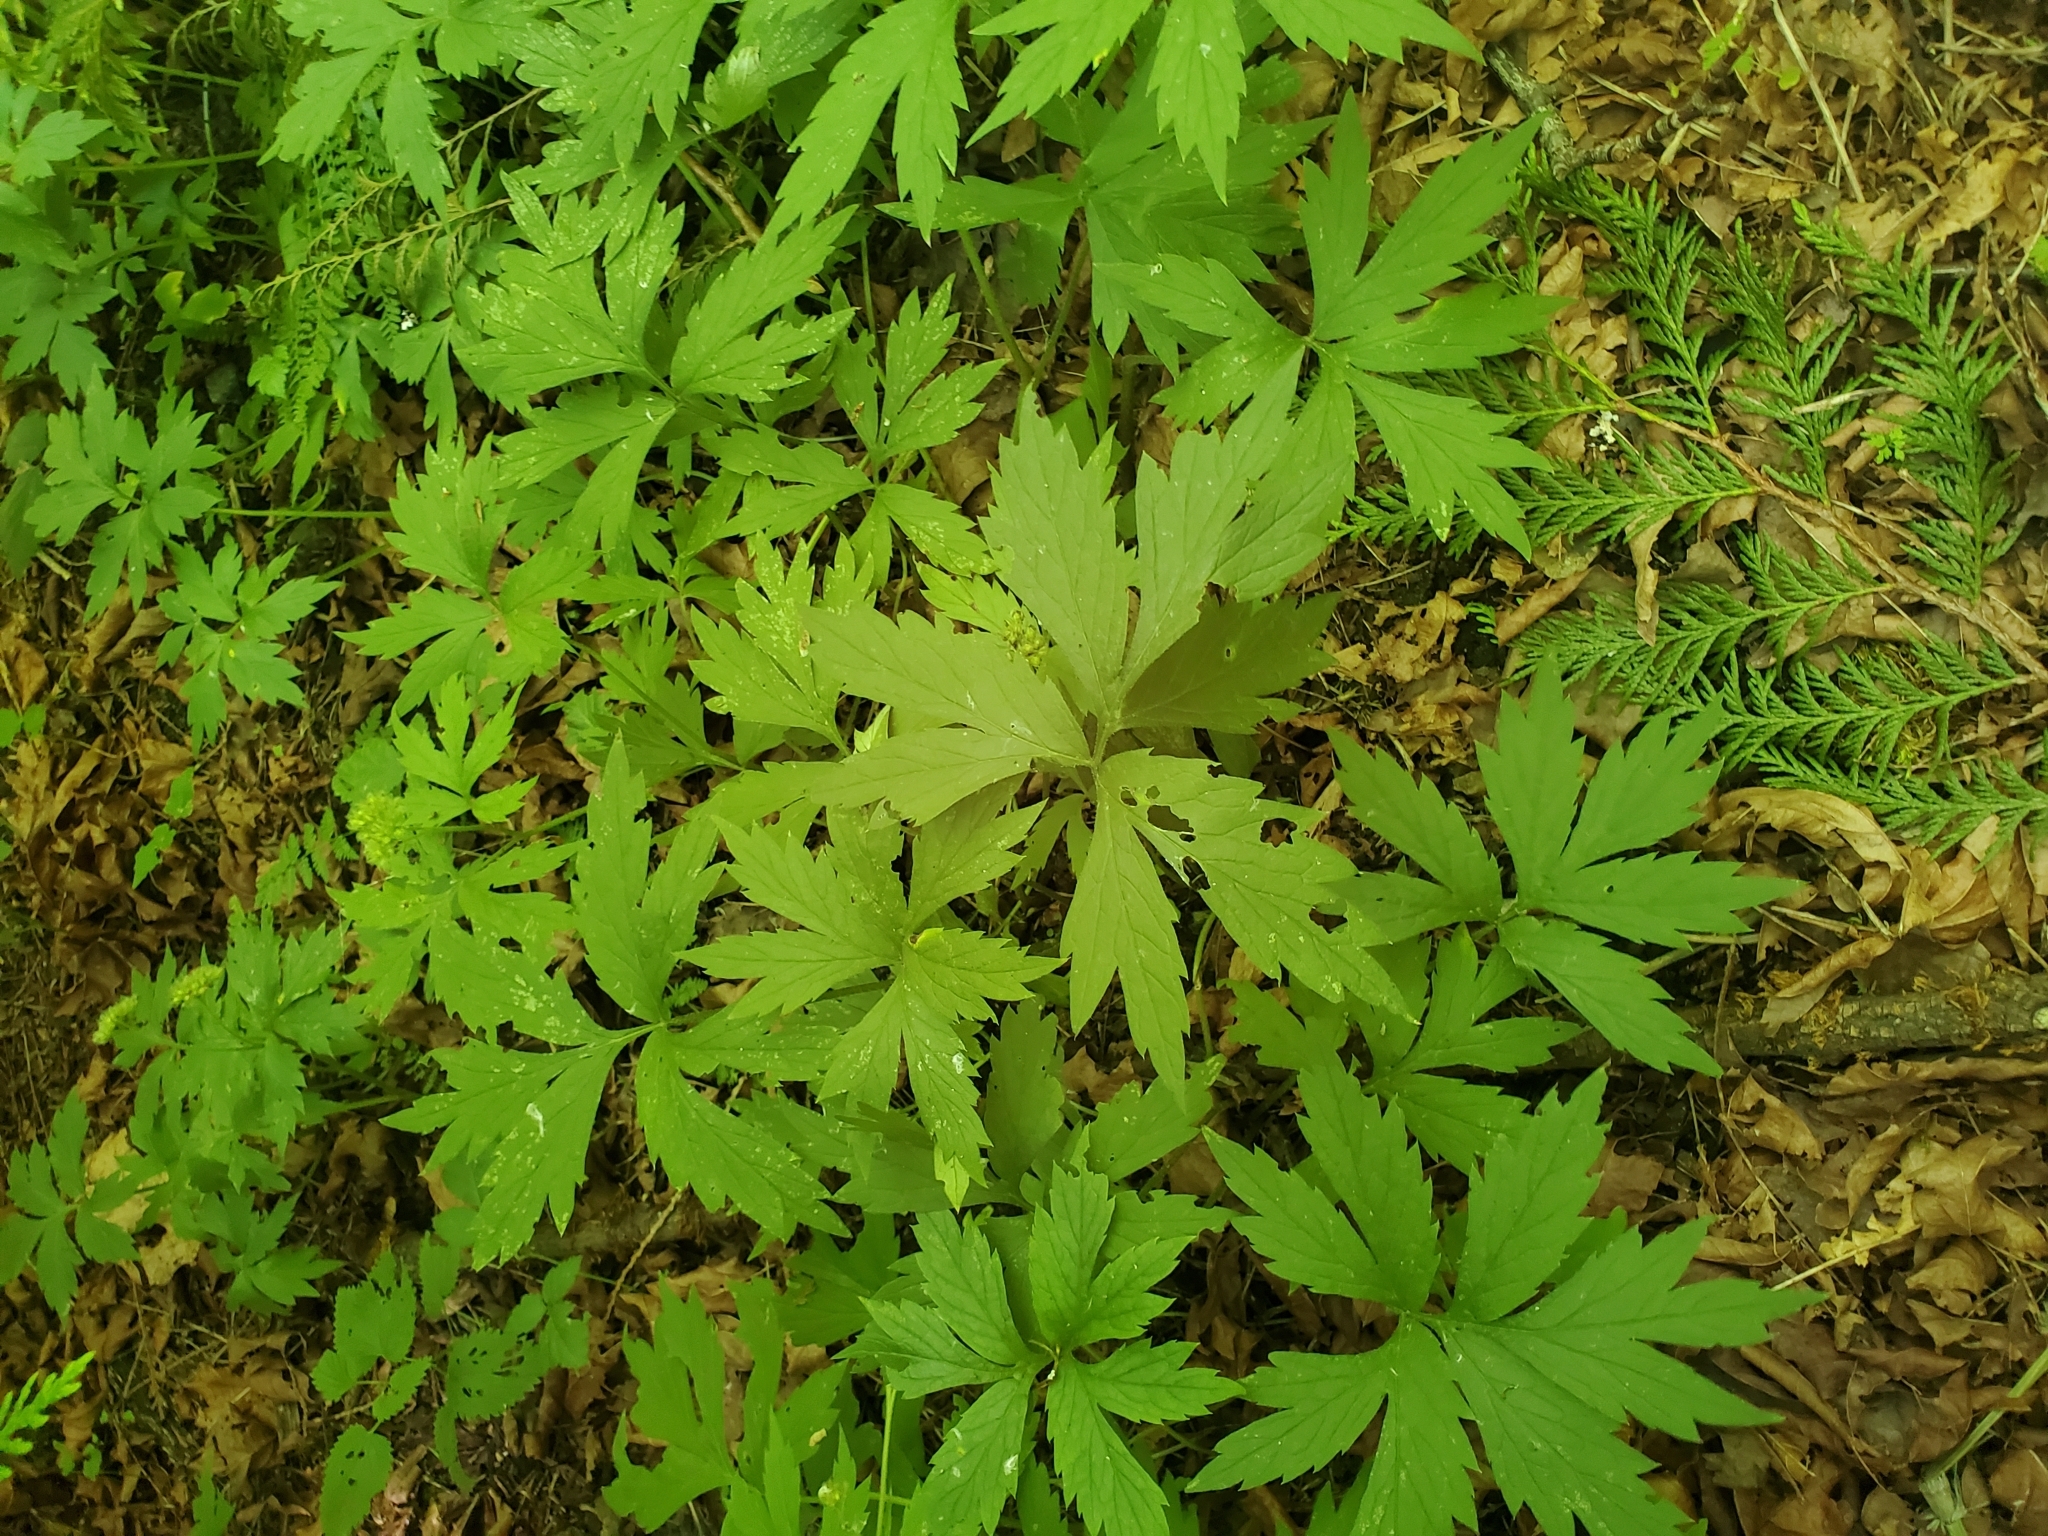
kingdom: Plantae
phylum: Tracheophyta
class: Magnoliopsida
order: Boraginales
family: Hydrophyllaceae
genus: Hydrophyllum
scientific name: Hydrophyllum tenuipes
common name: Pacific waterleaf
